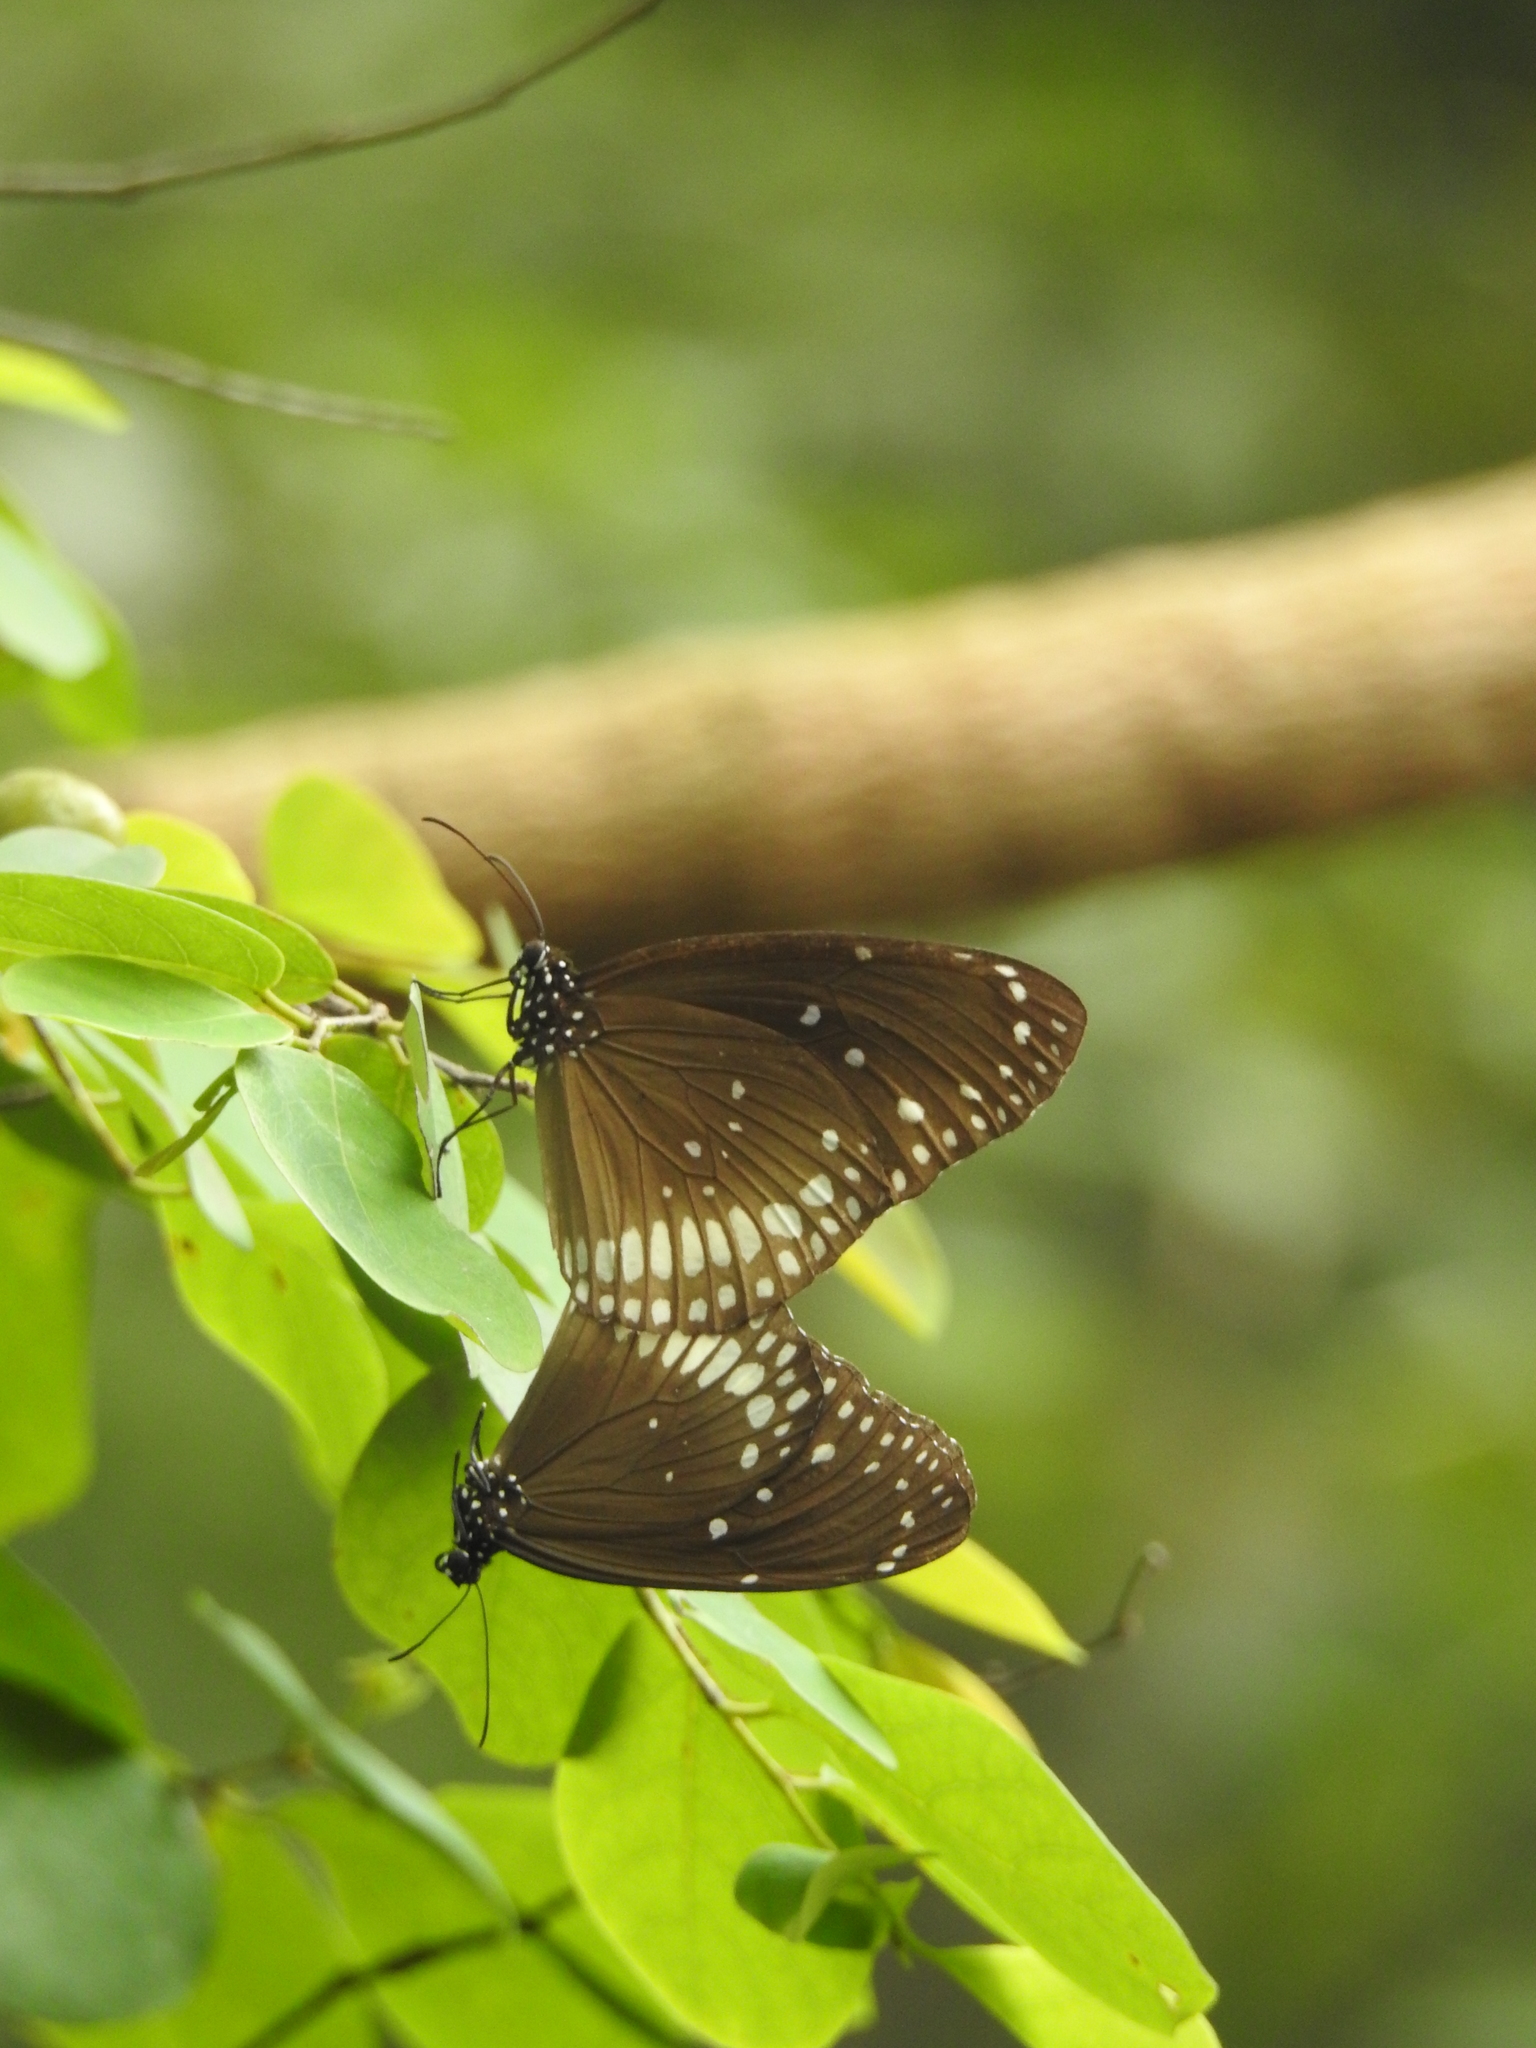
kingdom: Animalia
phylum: Arthropoda
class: Insecta
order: Lepidoptera
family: Nymphalidae
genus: Euploea
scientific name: Euploea core
